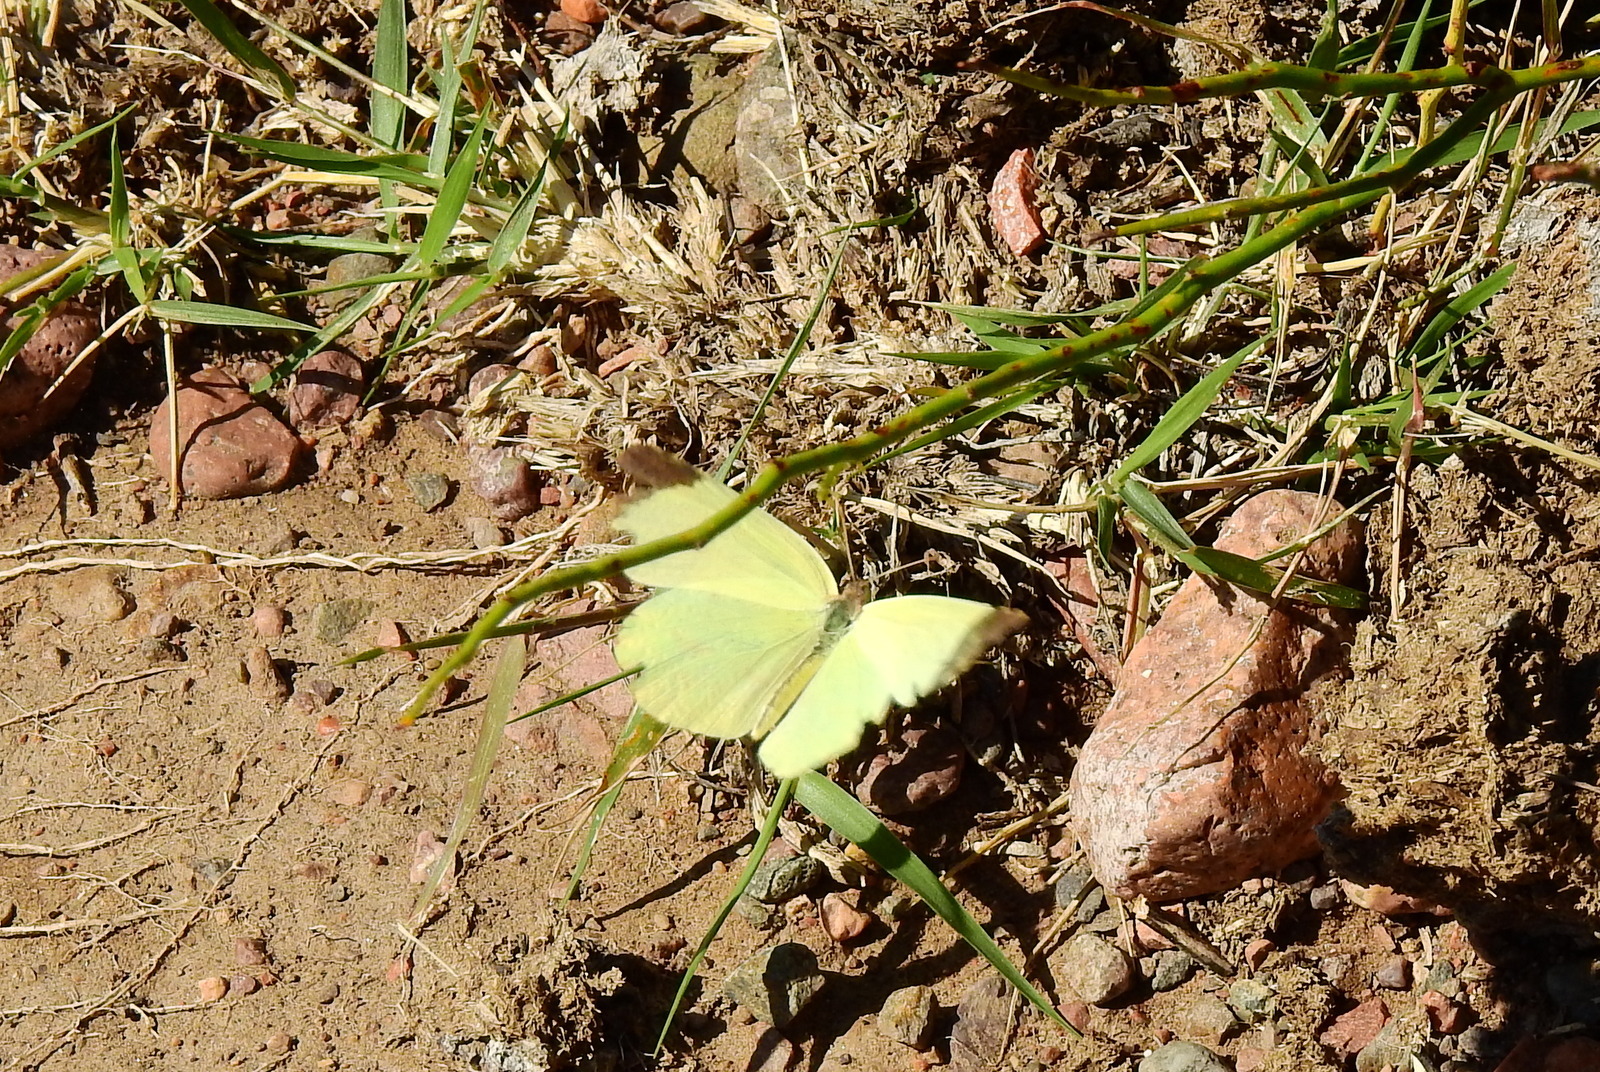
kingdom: Animalia
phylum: Arthropoda
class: Insecta
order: Lepidoptera
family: Pieridae
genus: Teriocolias
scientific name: Teriocolias
